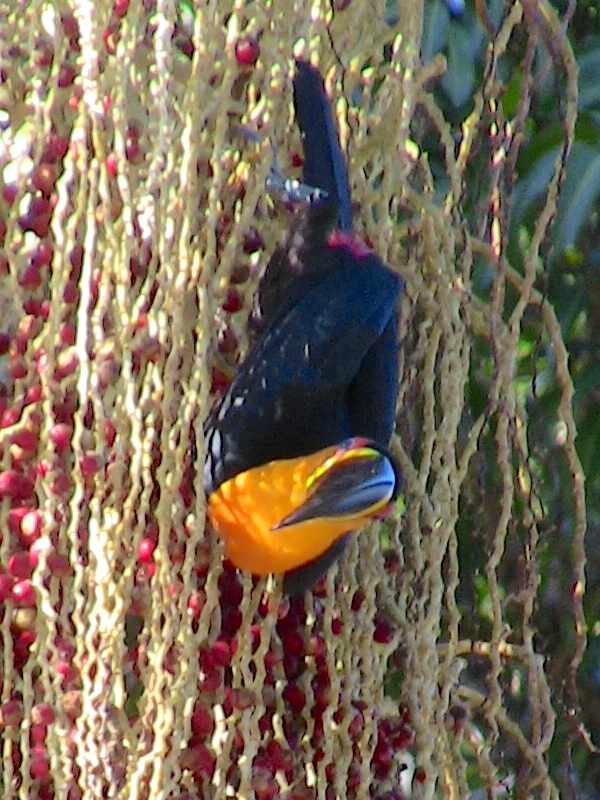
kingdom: Animalia
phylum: Chordata
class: Aves
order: Piciformes
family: Ramphastidae
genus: Ramphastos
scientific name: Ramphastos vitellinus
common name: Channel-billed toucan
